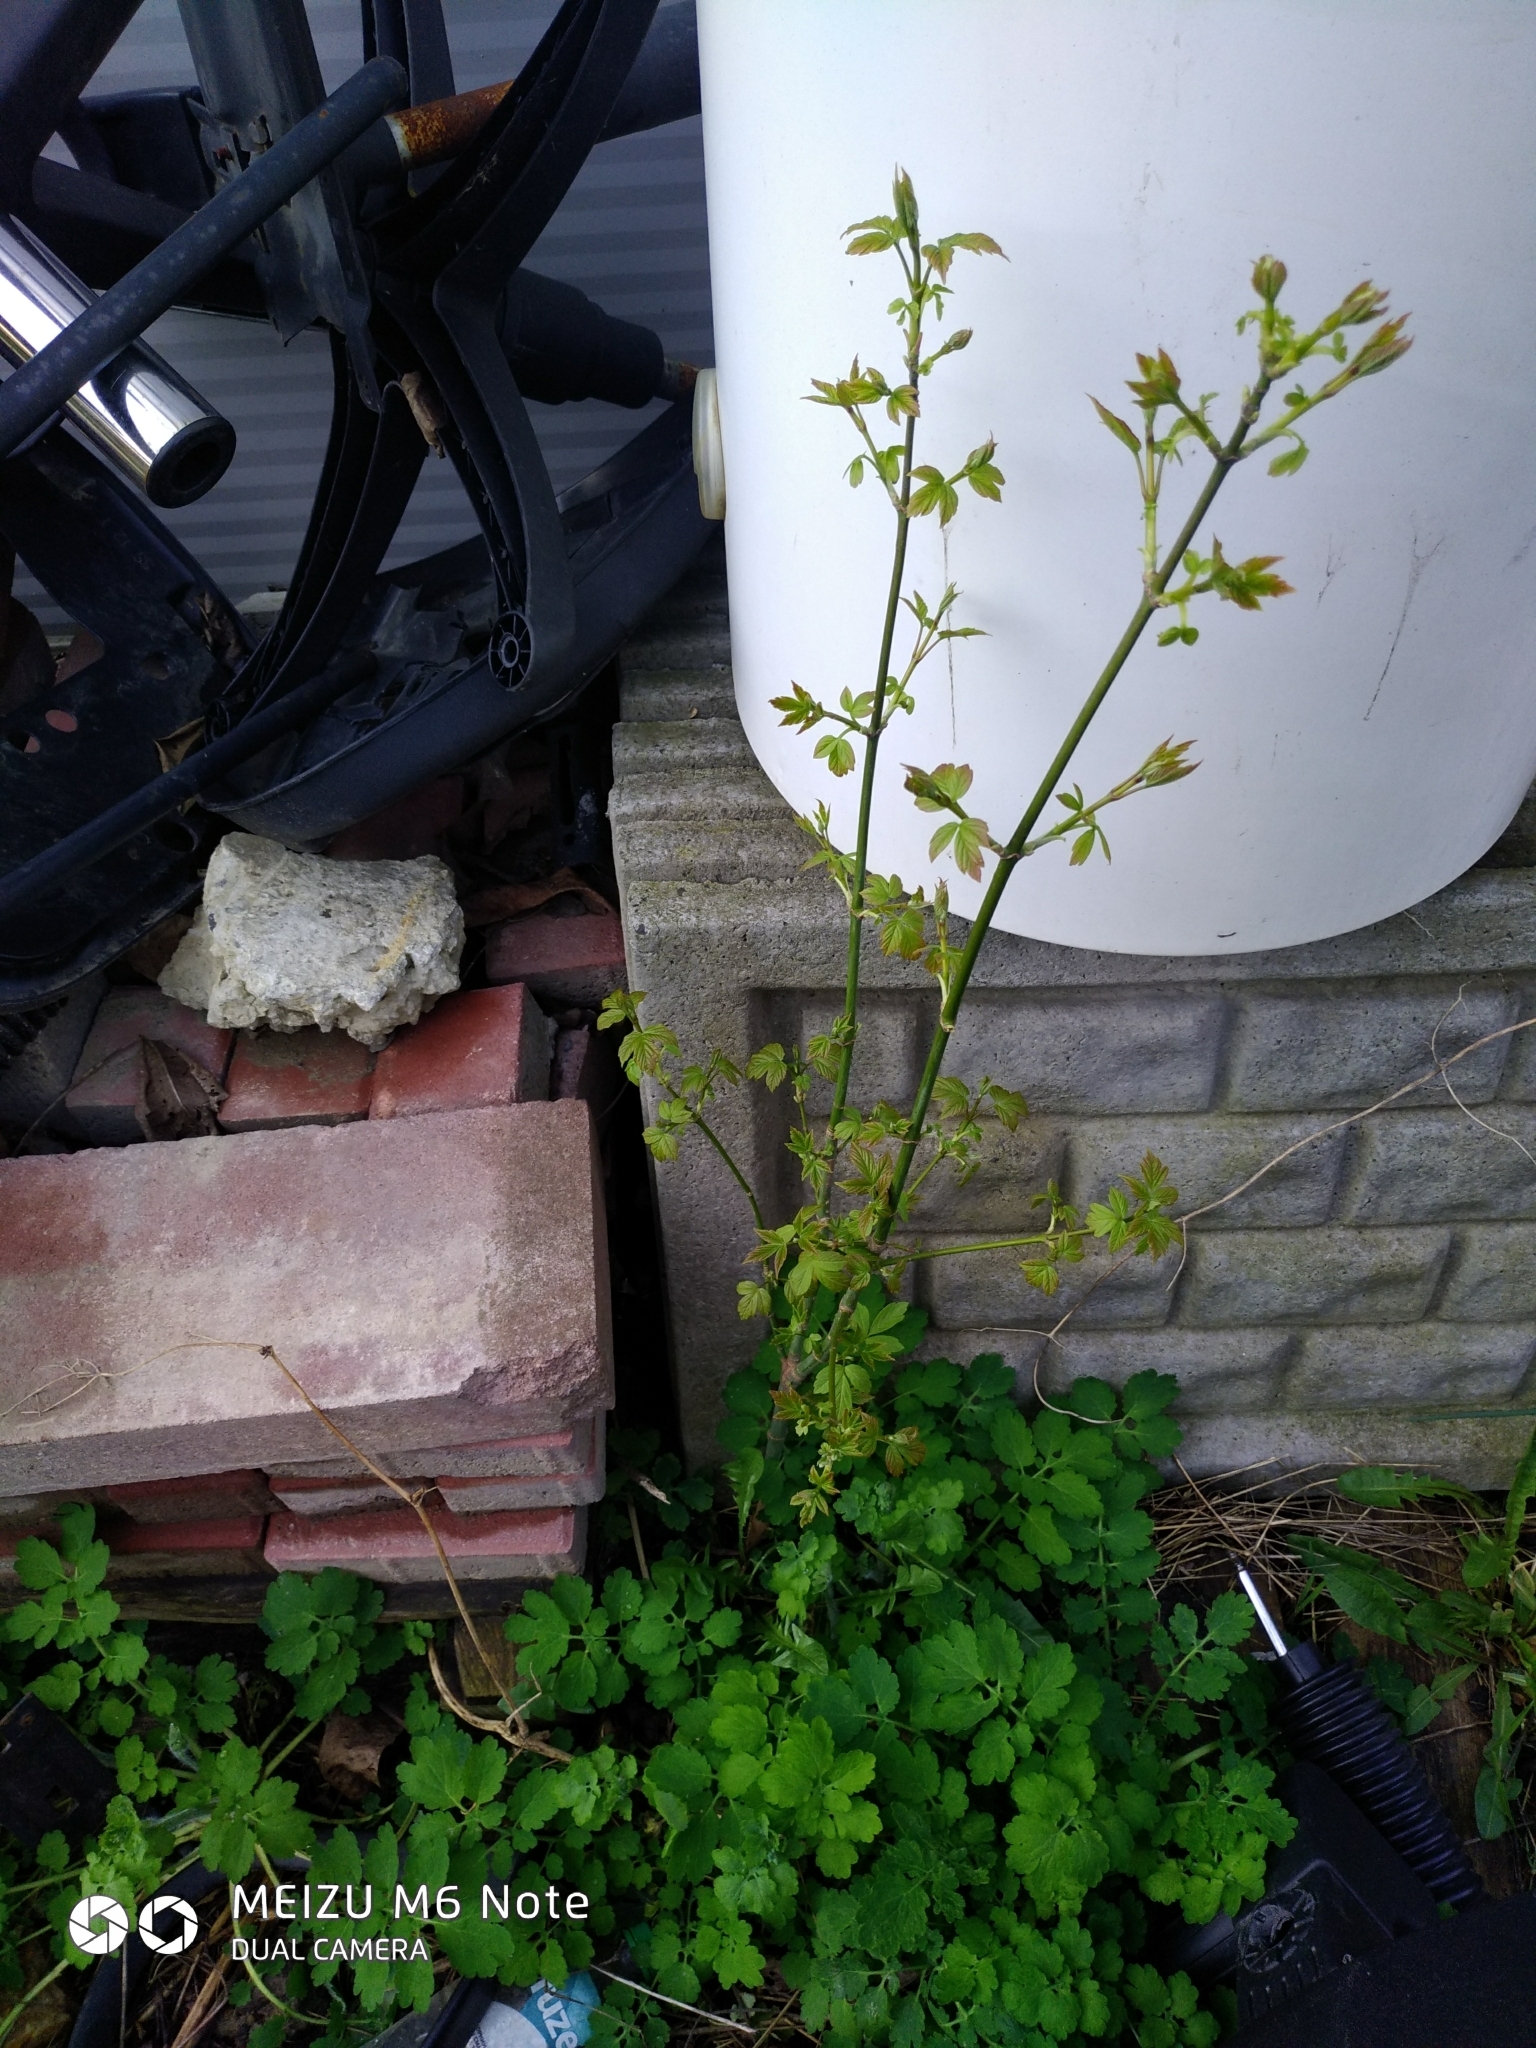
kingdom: Plantae
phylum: Tracheophyta
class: Magnoliopsida
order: Sapindales
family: Sapindaceae
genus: Acer
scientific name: Acer negundo
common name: Ashleaf maple
